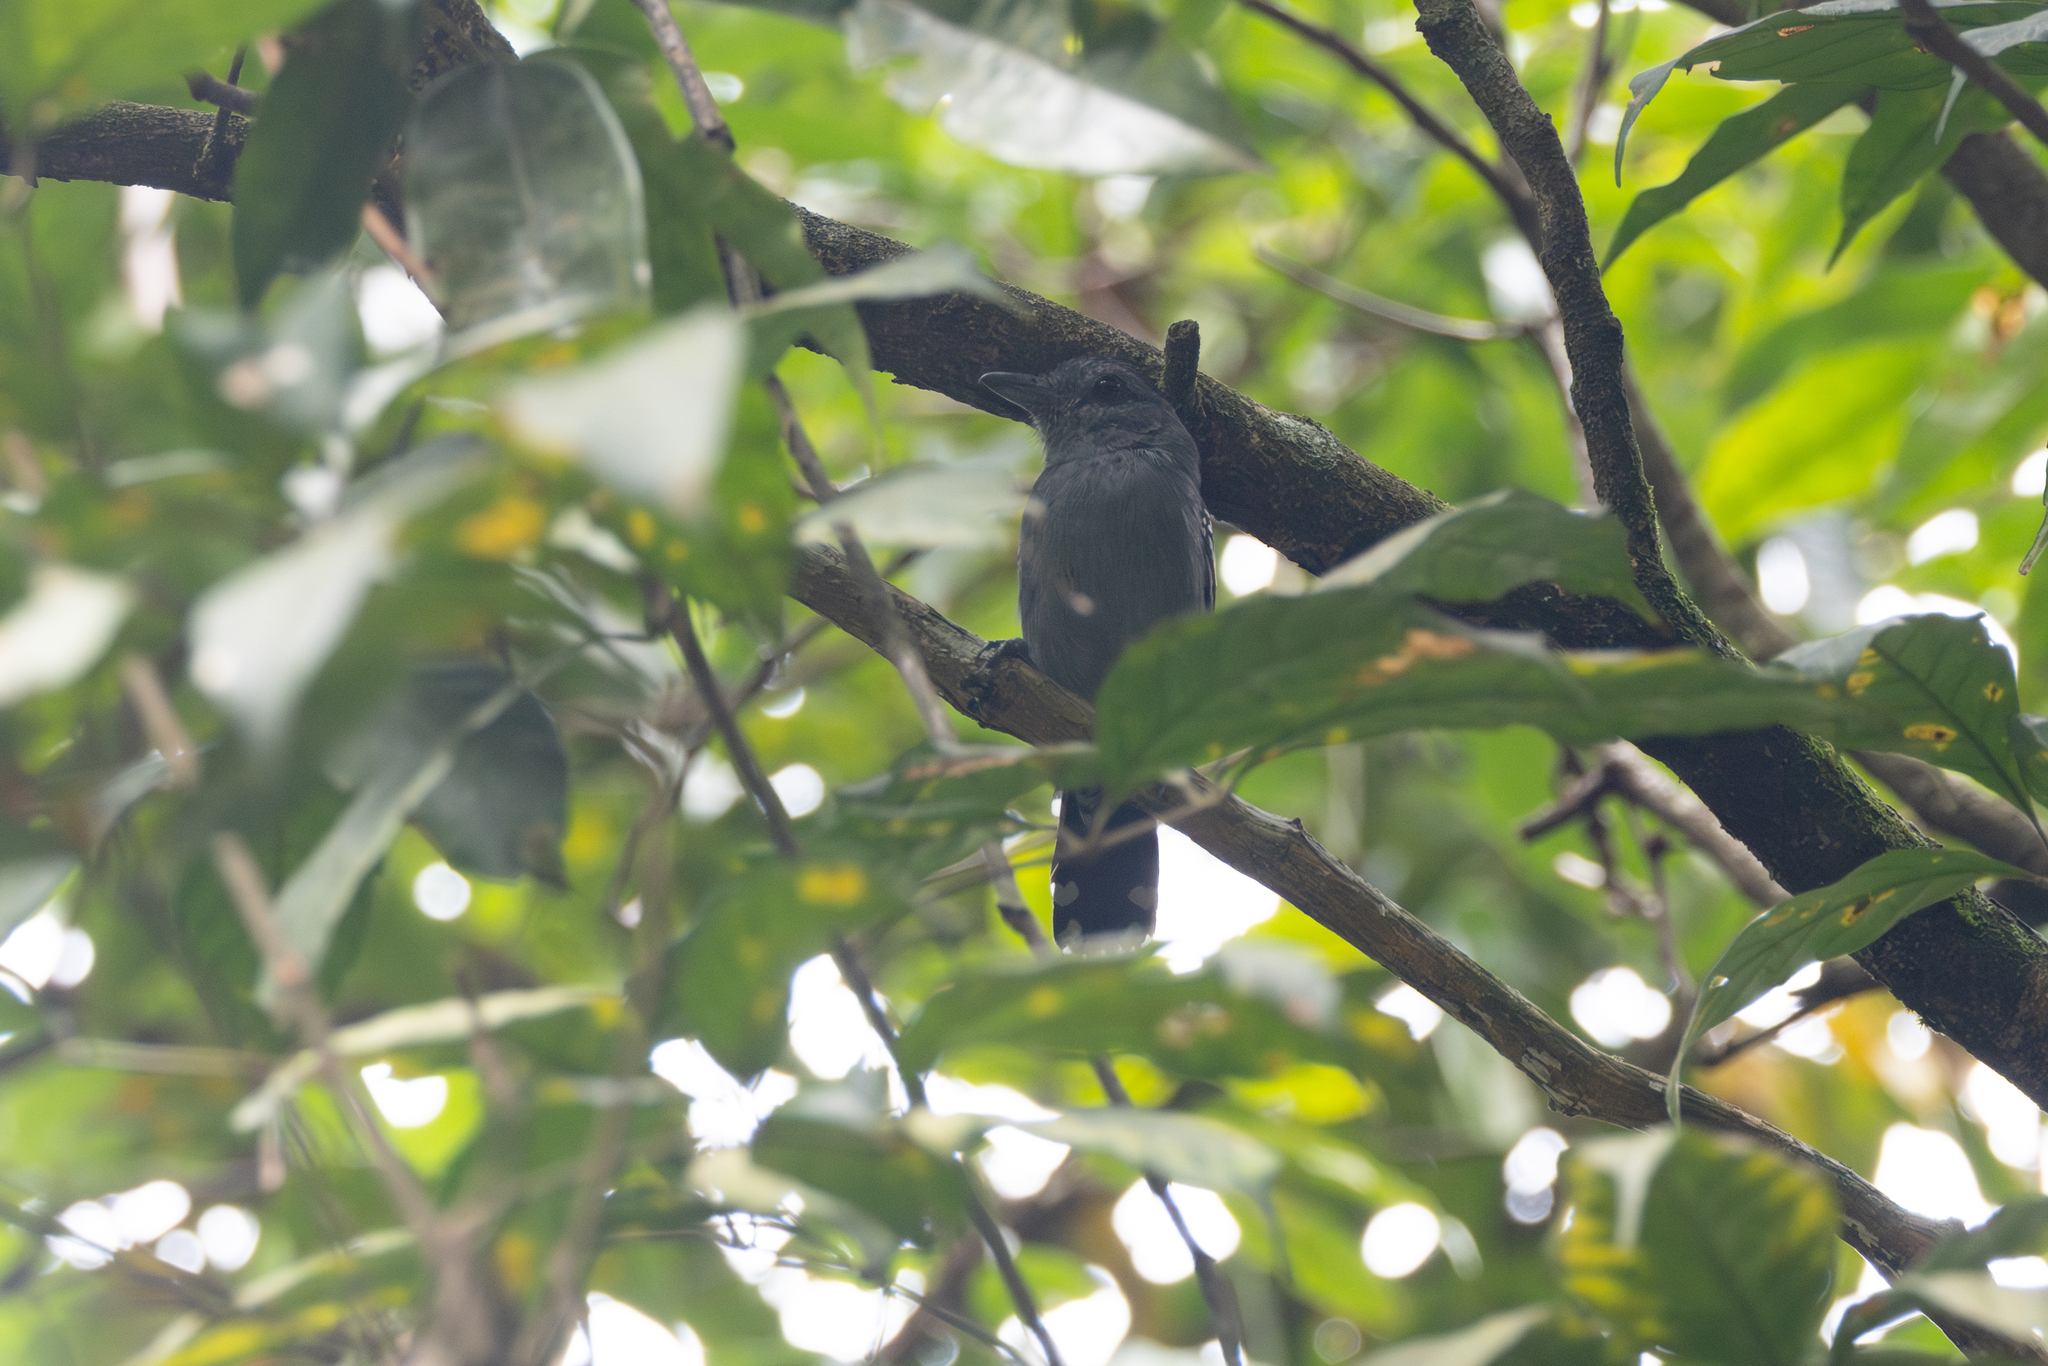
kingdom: Animalia
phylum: Chordata
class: Aves
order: Passeriformes
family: Thamnophilidae
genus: Thamnophilus
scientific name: Thamnophilus punctatus
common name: Northern slaty antshrike
